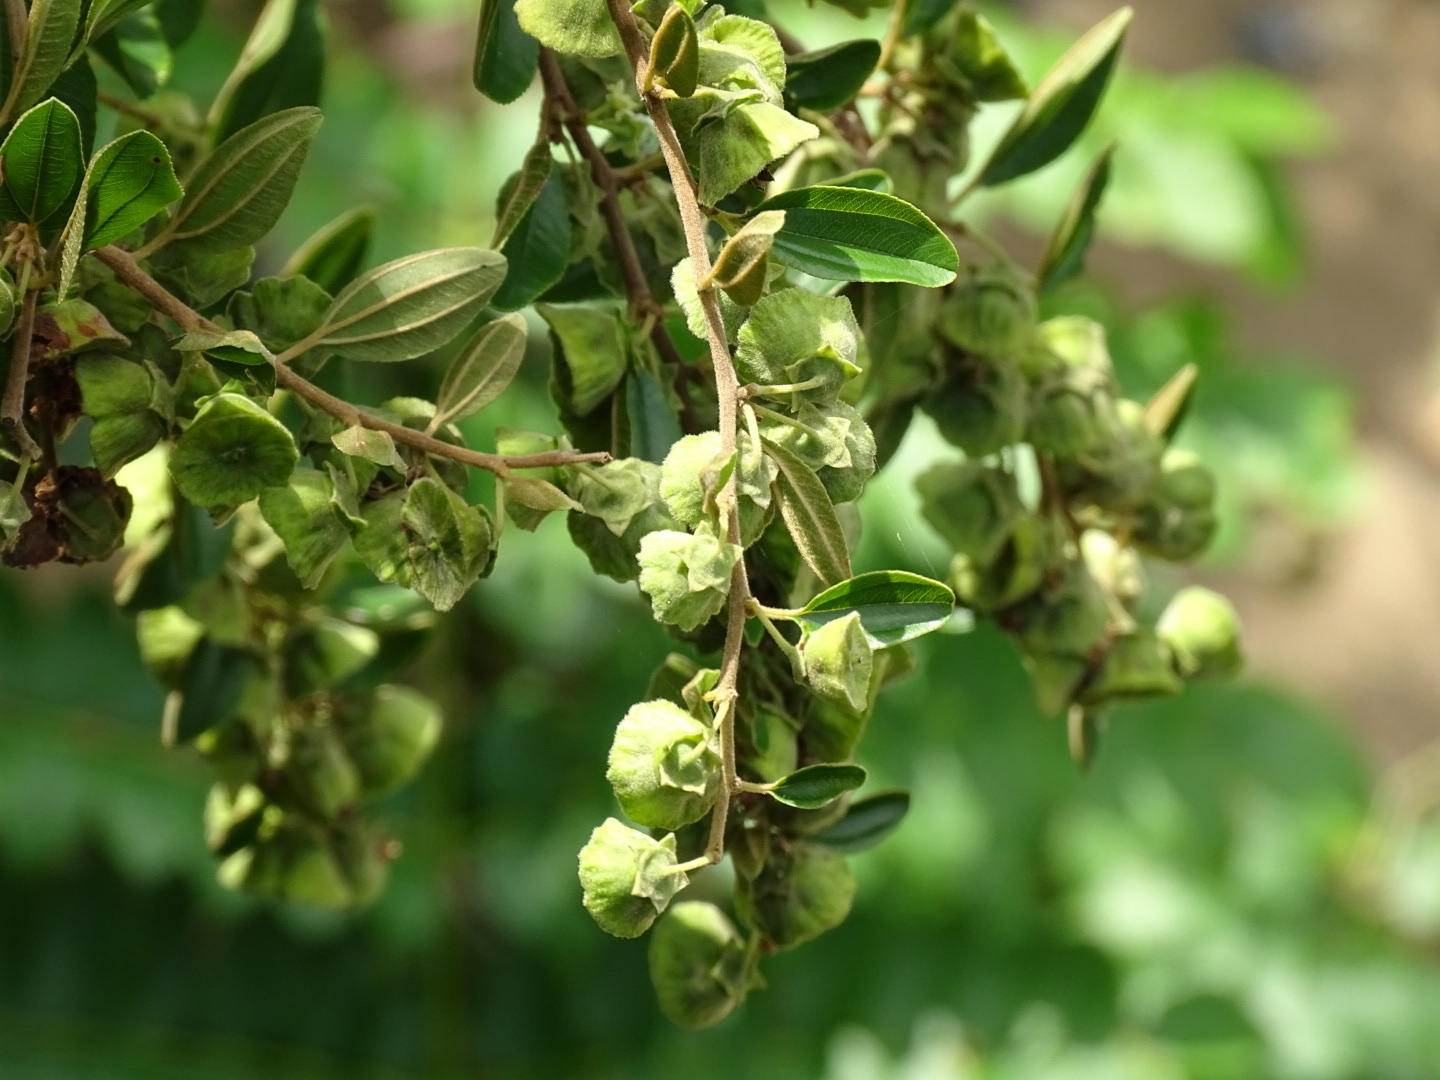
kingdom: Plantae
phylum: Tracheophyta
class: Magnoliopsida
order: Rosales
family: Rhamnaceae
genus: Paliurus
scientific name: Paliurus ramosissimus
